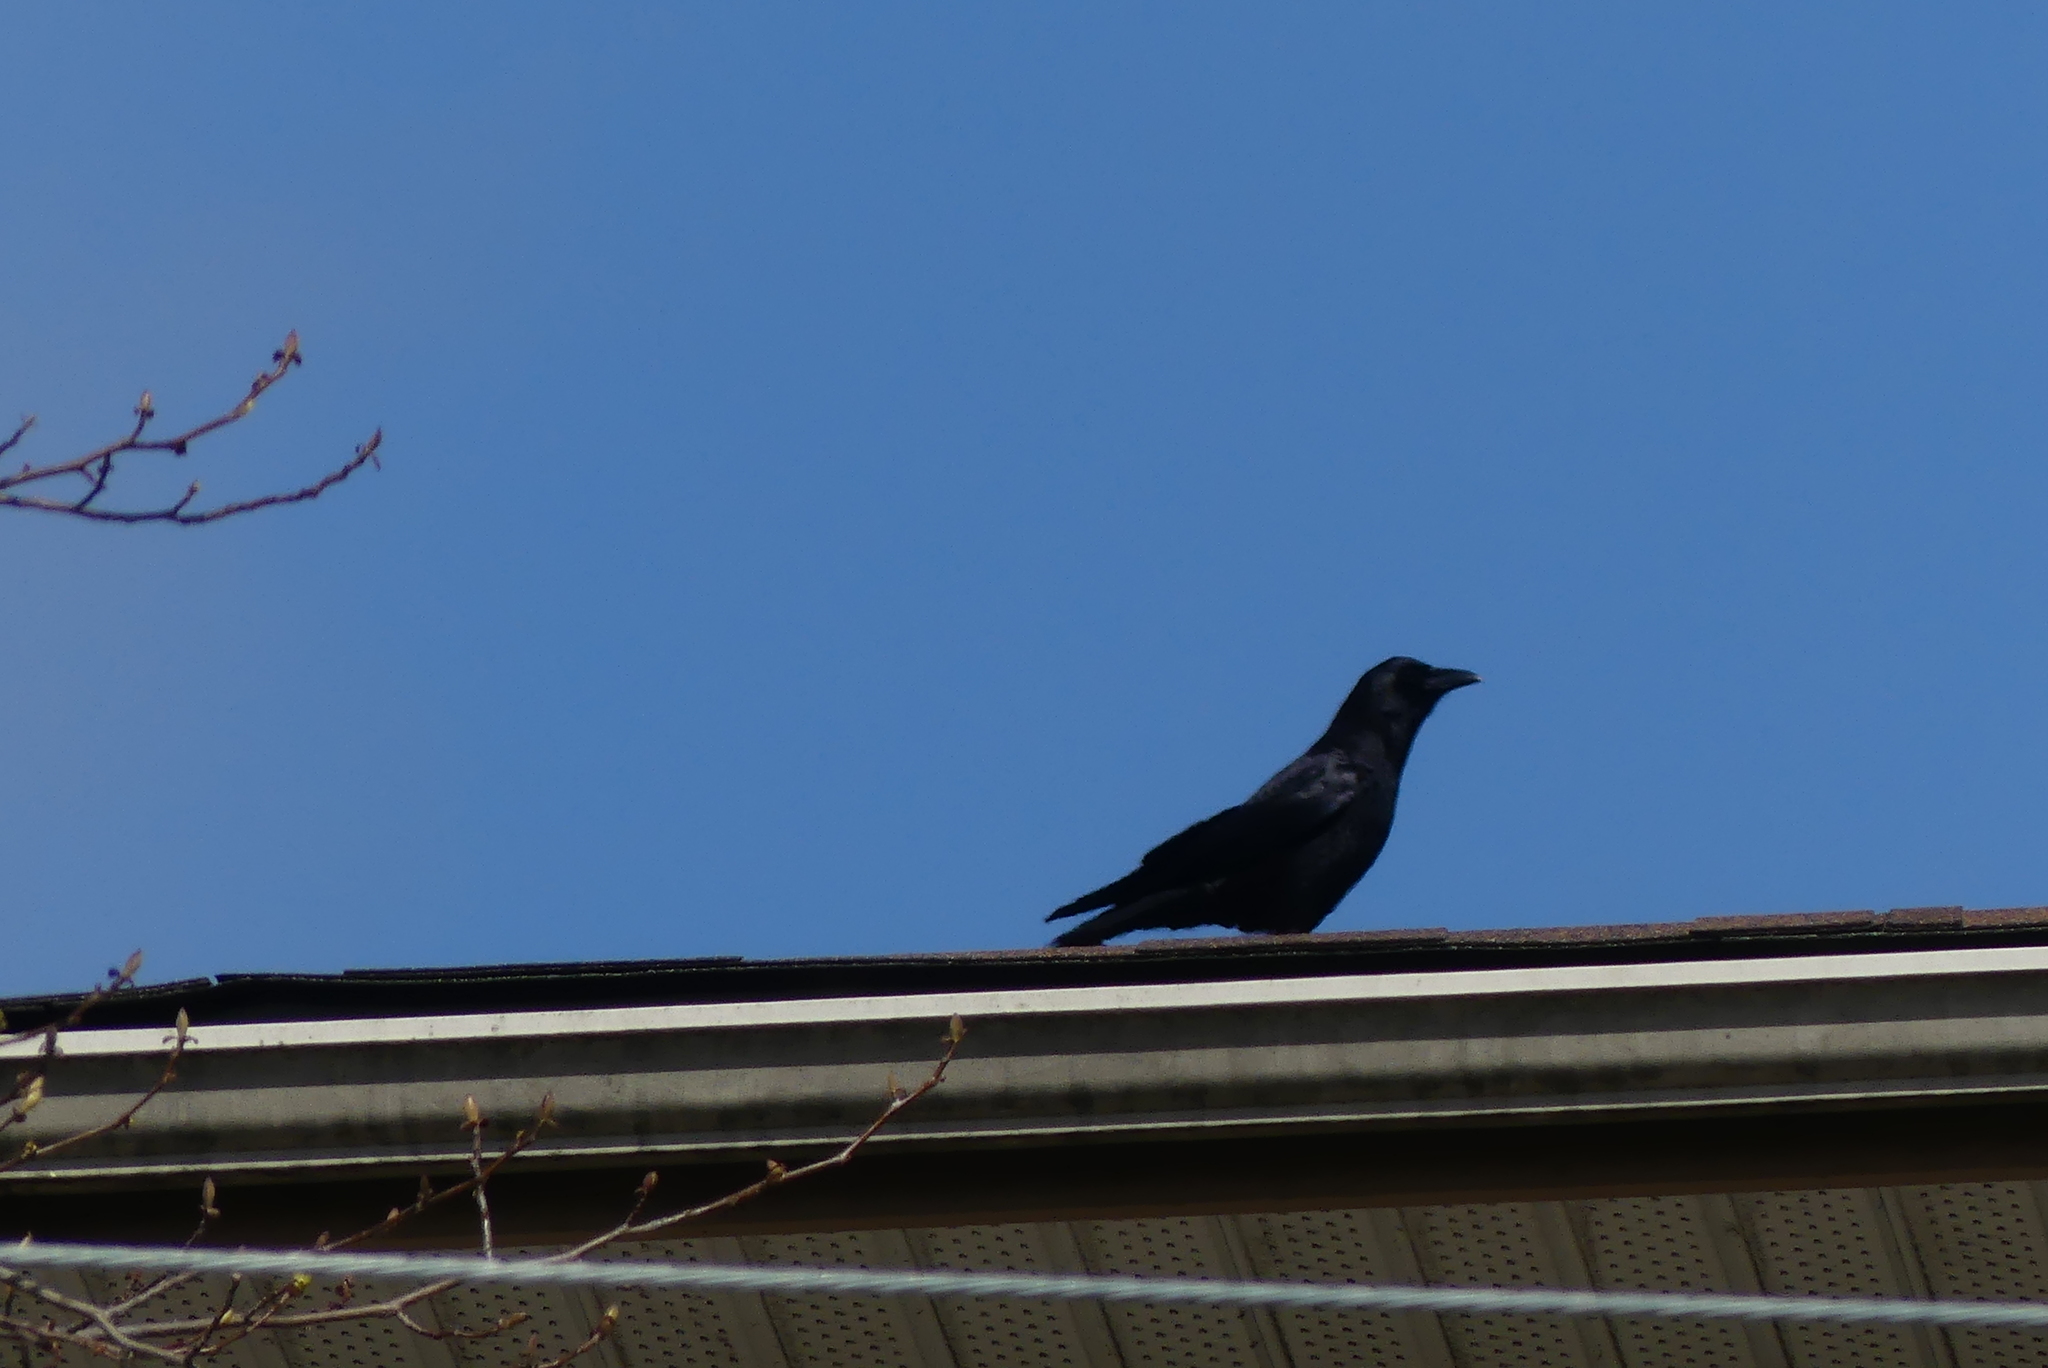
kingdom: Animalia
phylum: Chordata
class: Aves
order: Passeriformes
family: Corvidae
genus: Corvus
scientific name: Corvus brachyrhynchos
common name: American crow
